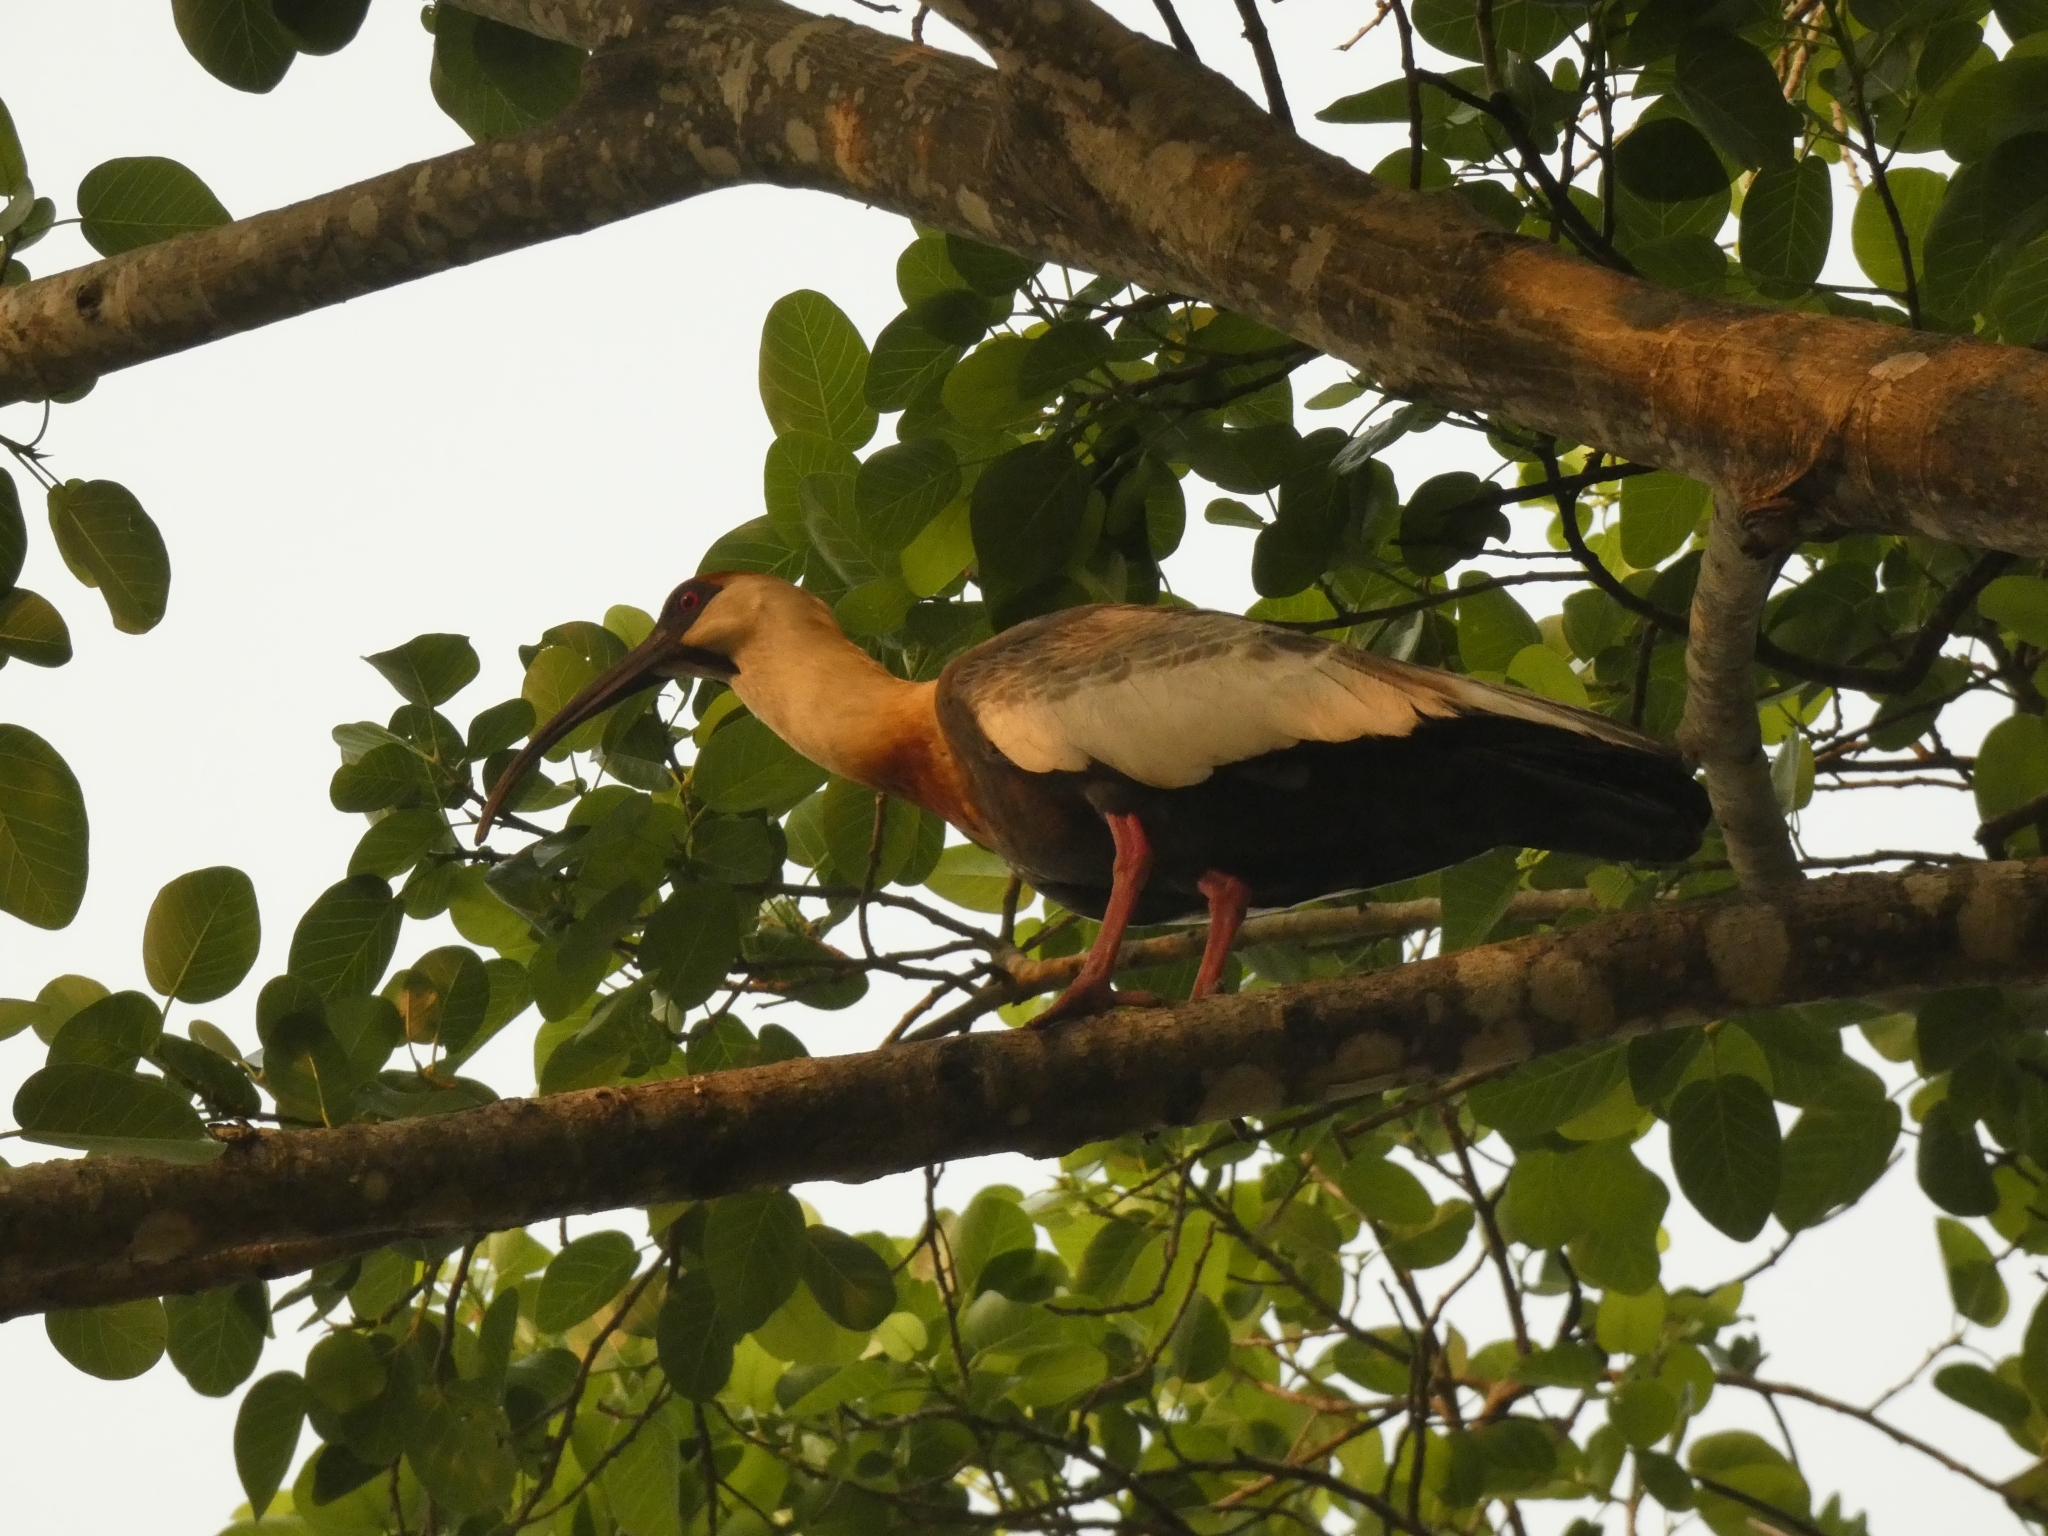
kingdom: Animalia
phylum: Chordata
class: Aves
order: Pelecaniformes
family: Threskiornithidae
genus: Theristicus
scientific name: Theristicus caudatus
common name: Buff-necked ibis
